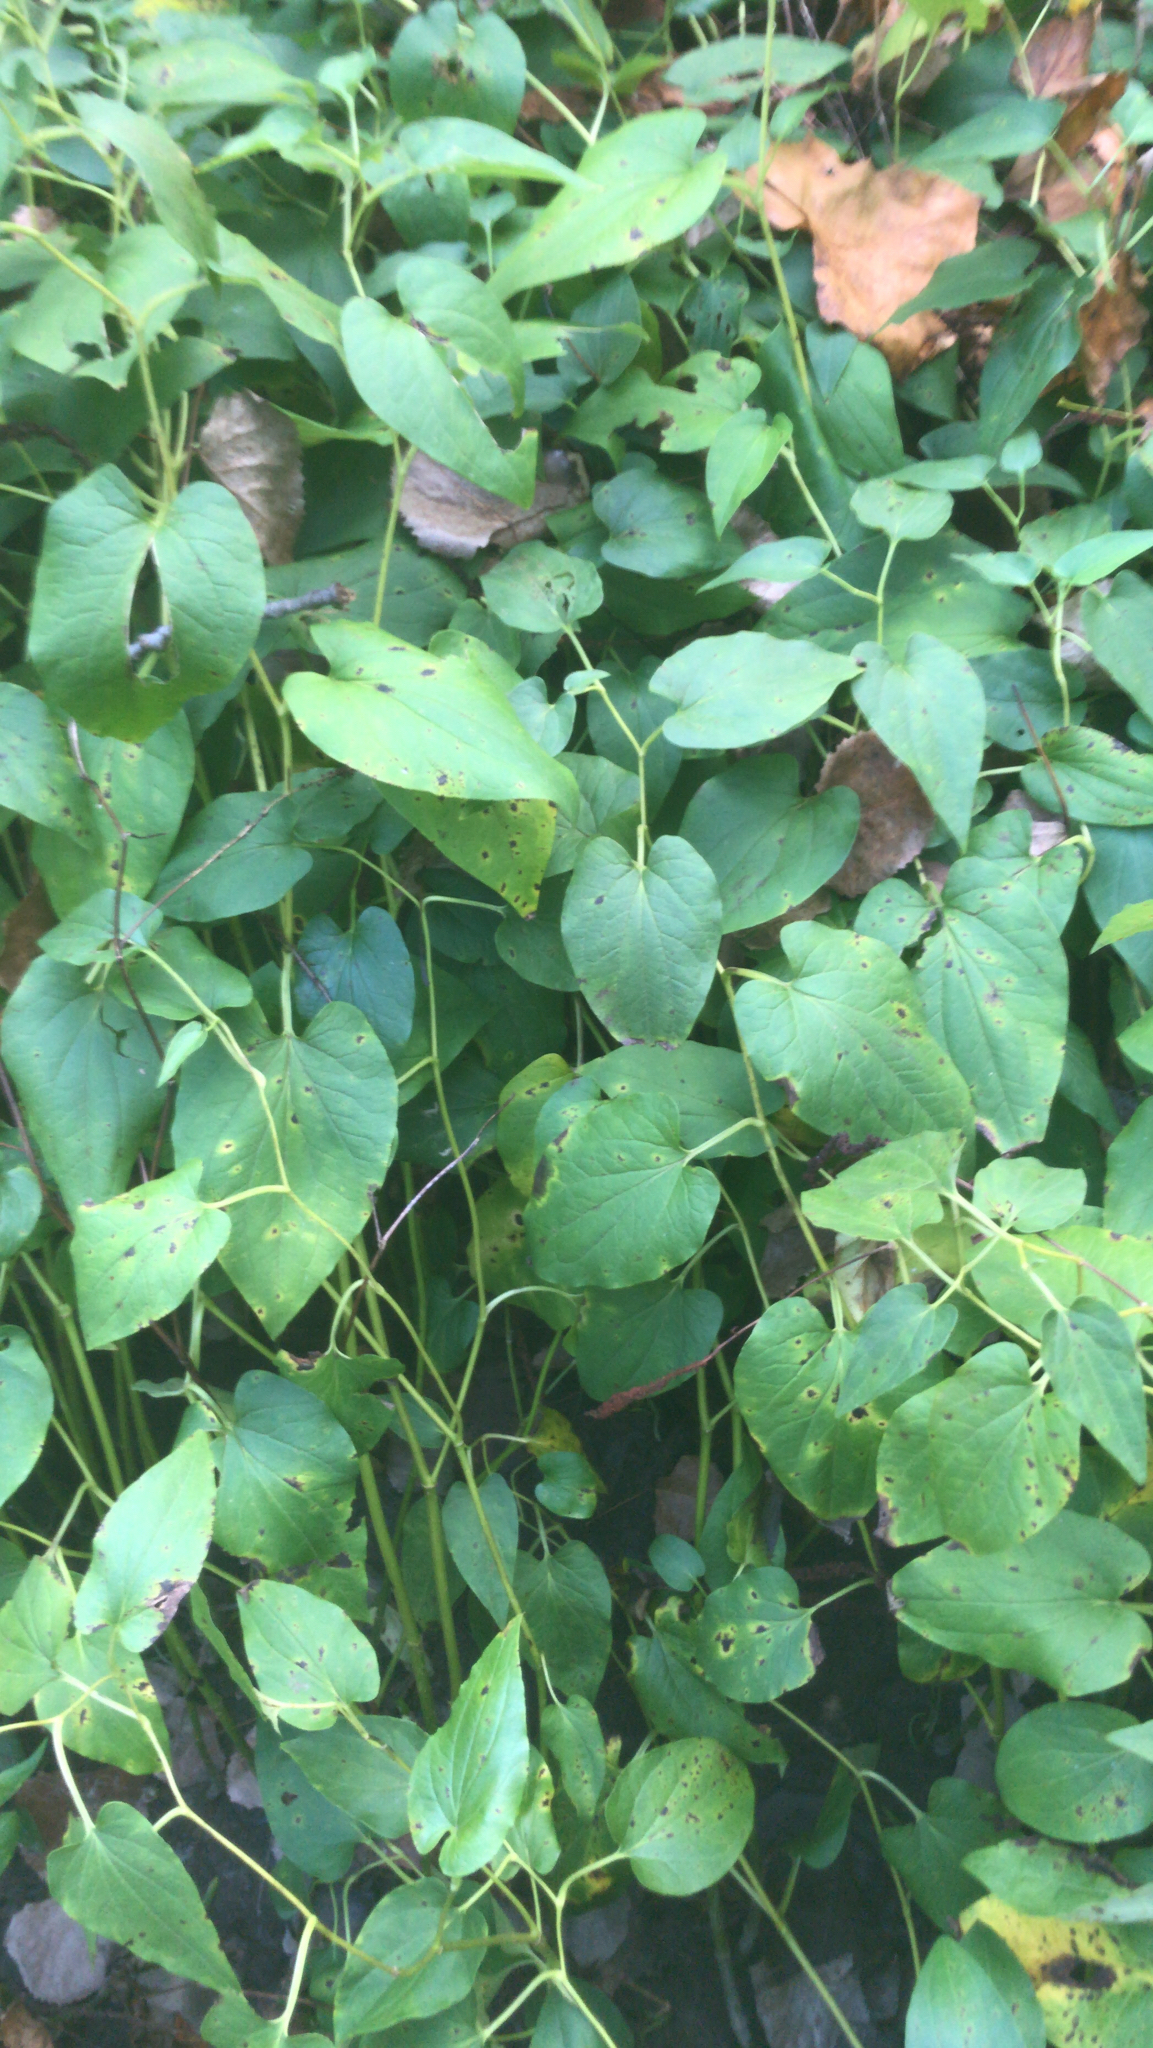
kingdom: Plantae
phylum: Tracheophyta
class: Magnoliopsida
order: Piperales
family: Saururaceae
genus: Saururus
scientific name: Saururus cernuus
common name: Lizard's-tail
